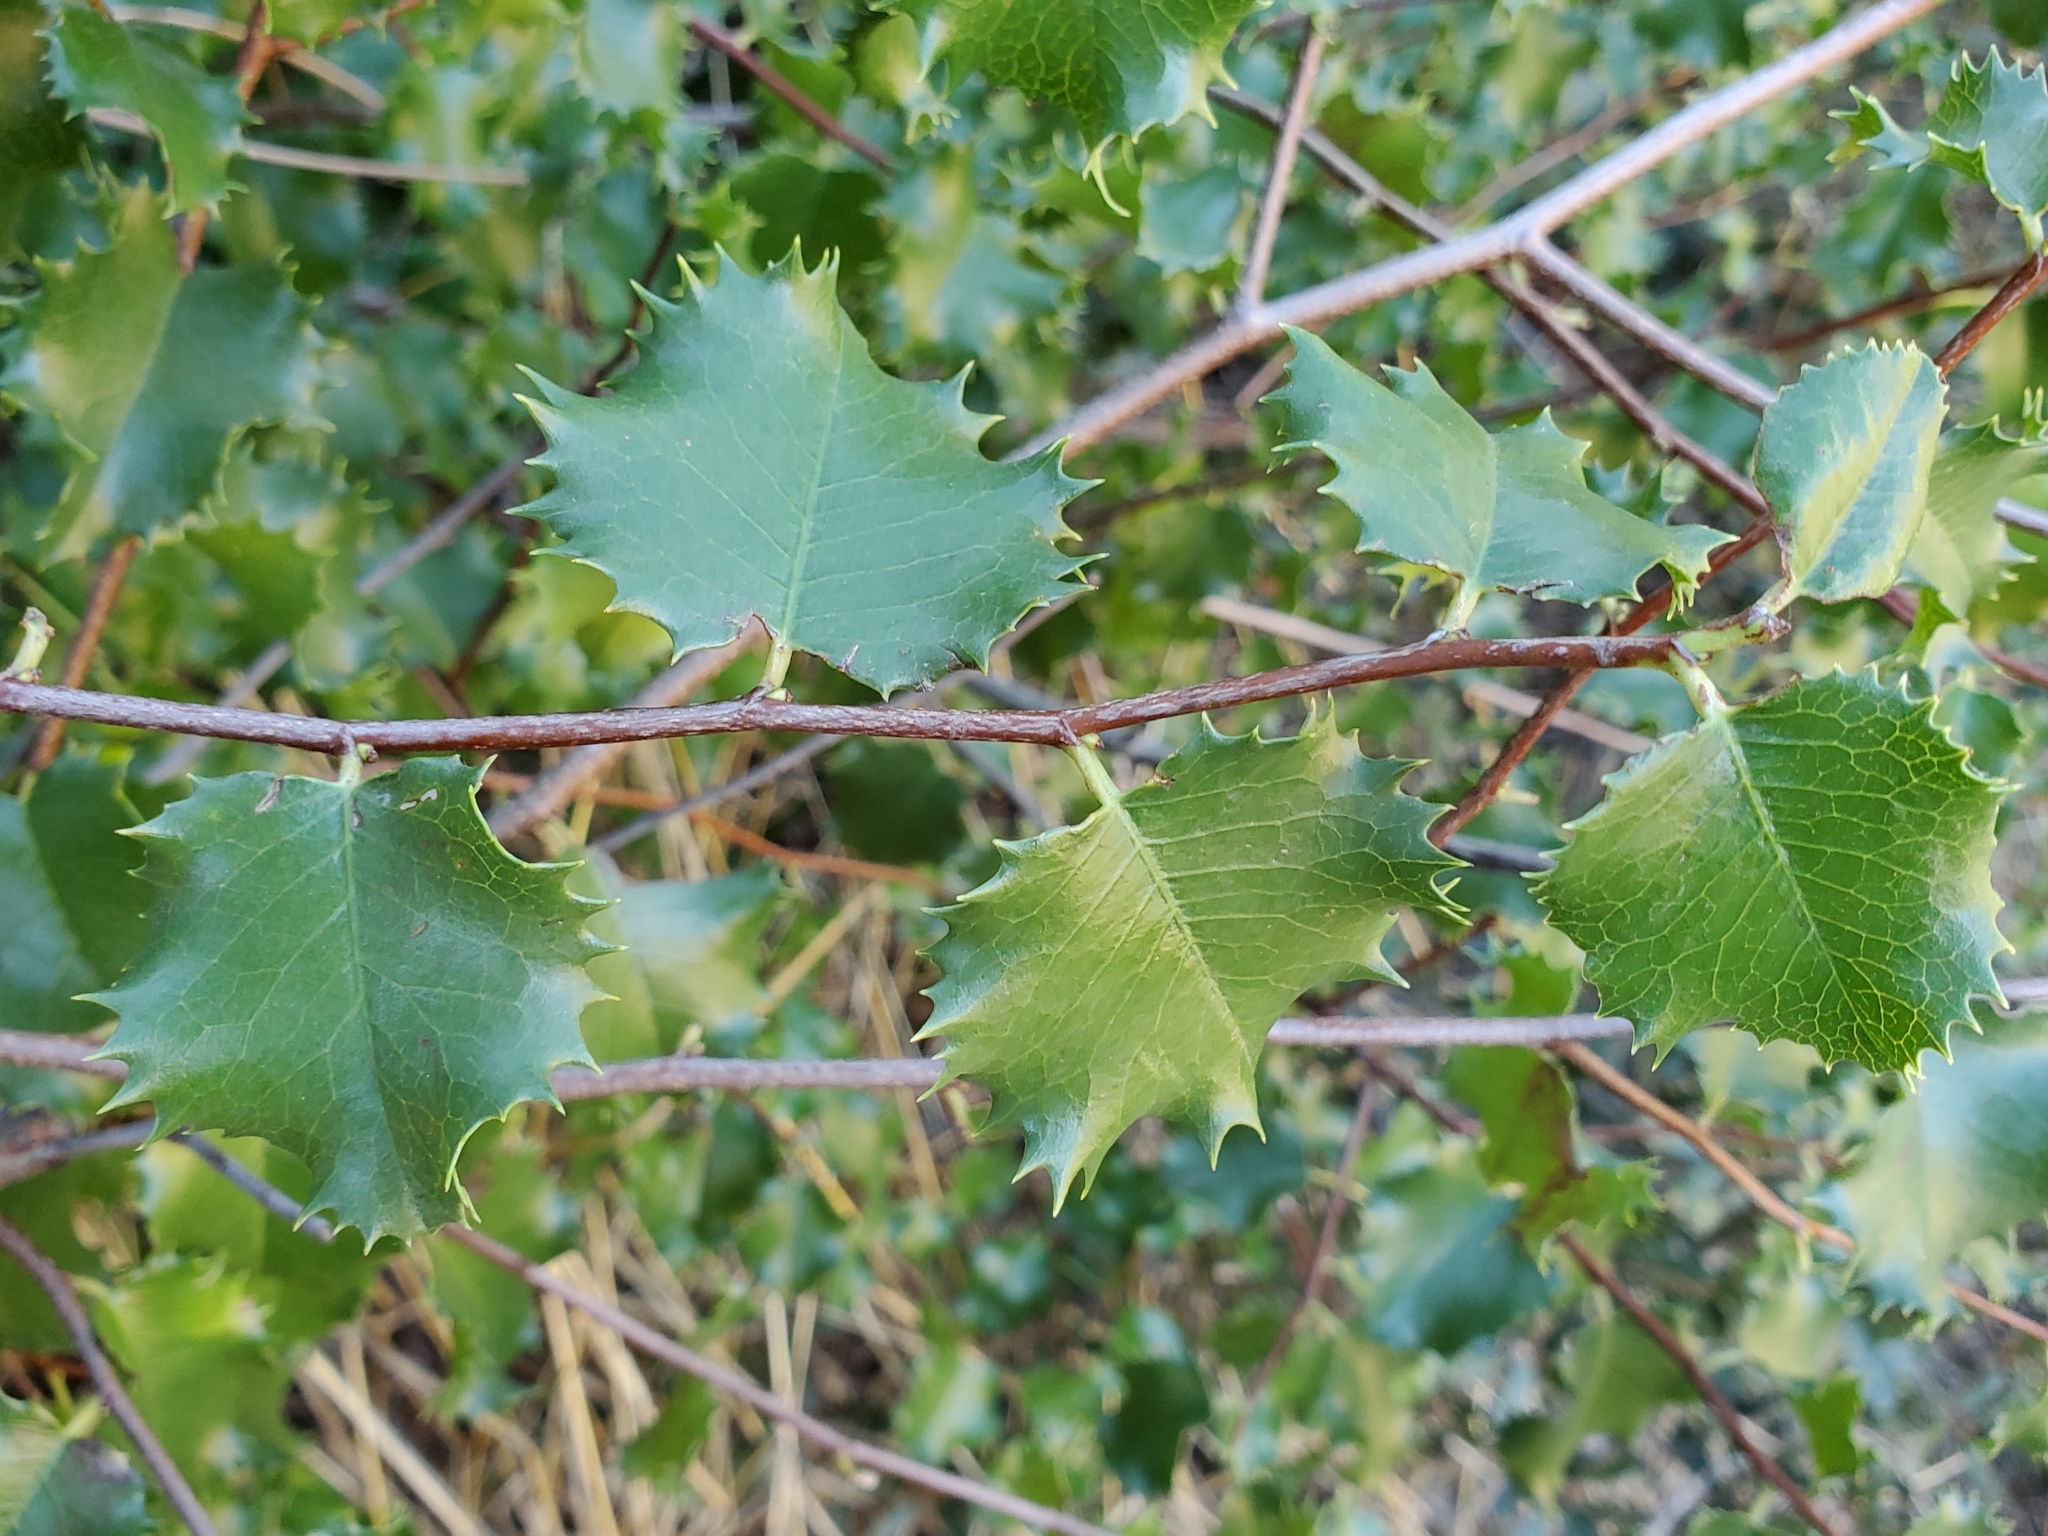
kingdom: Plantae
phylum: Tracheophyta
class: Magnoliopsida
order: Rosales
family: Rosaceae
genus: Prunus
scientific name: Prunus ilicifolia
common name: Hollyleaf cherry
